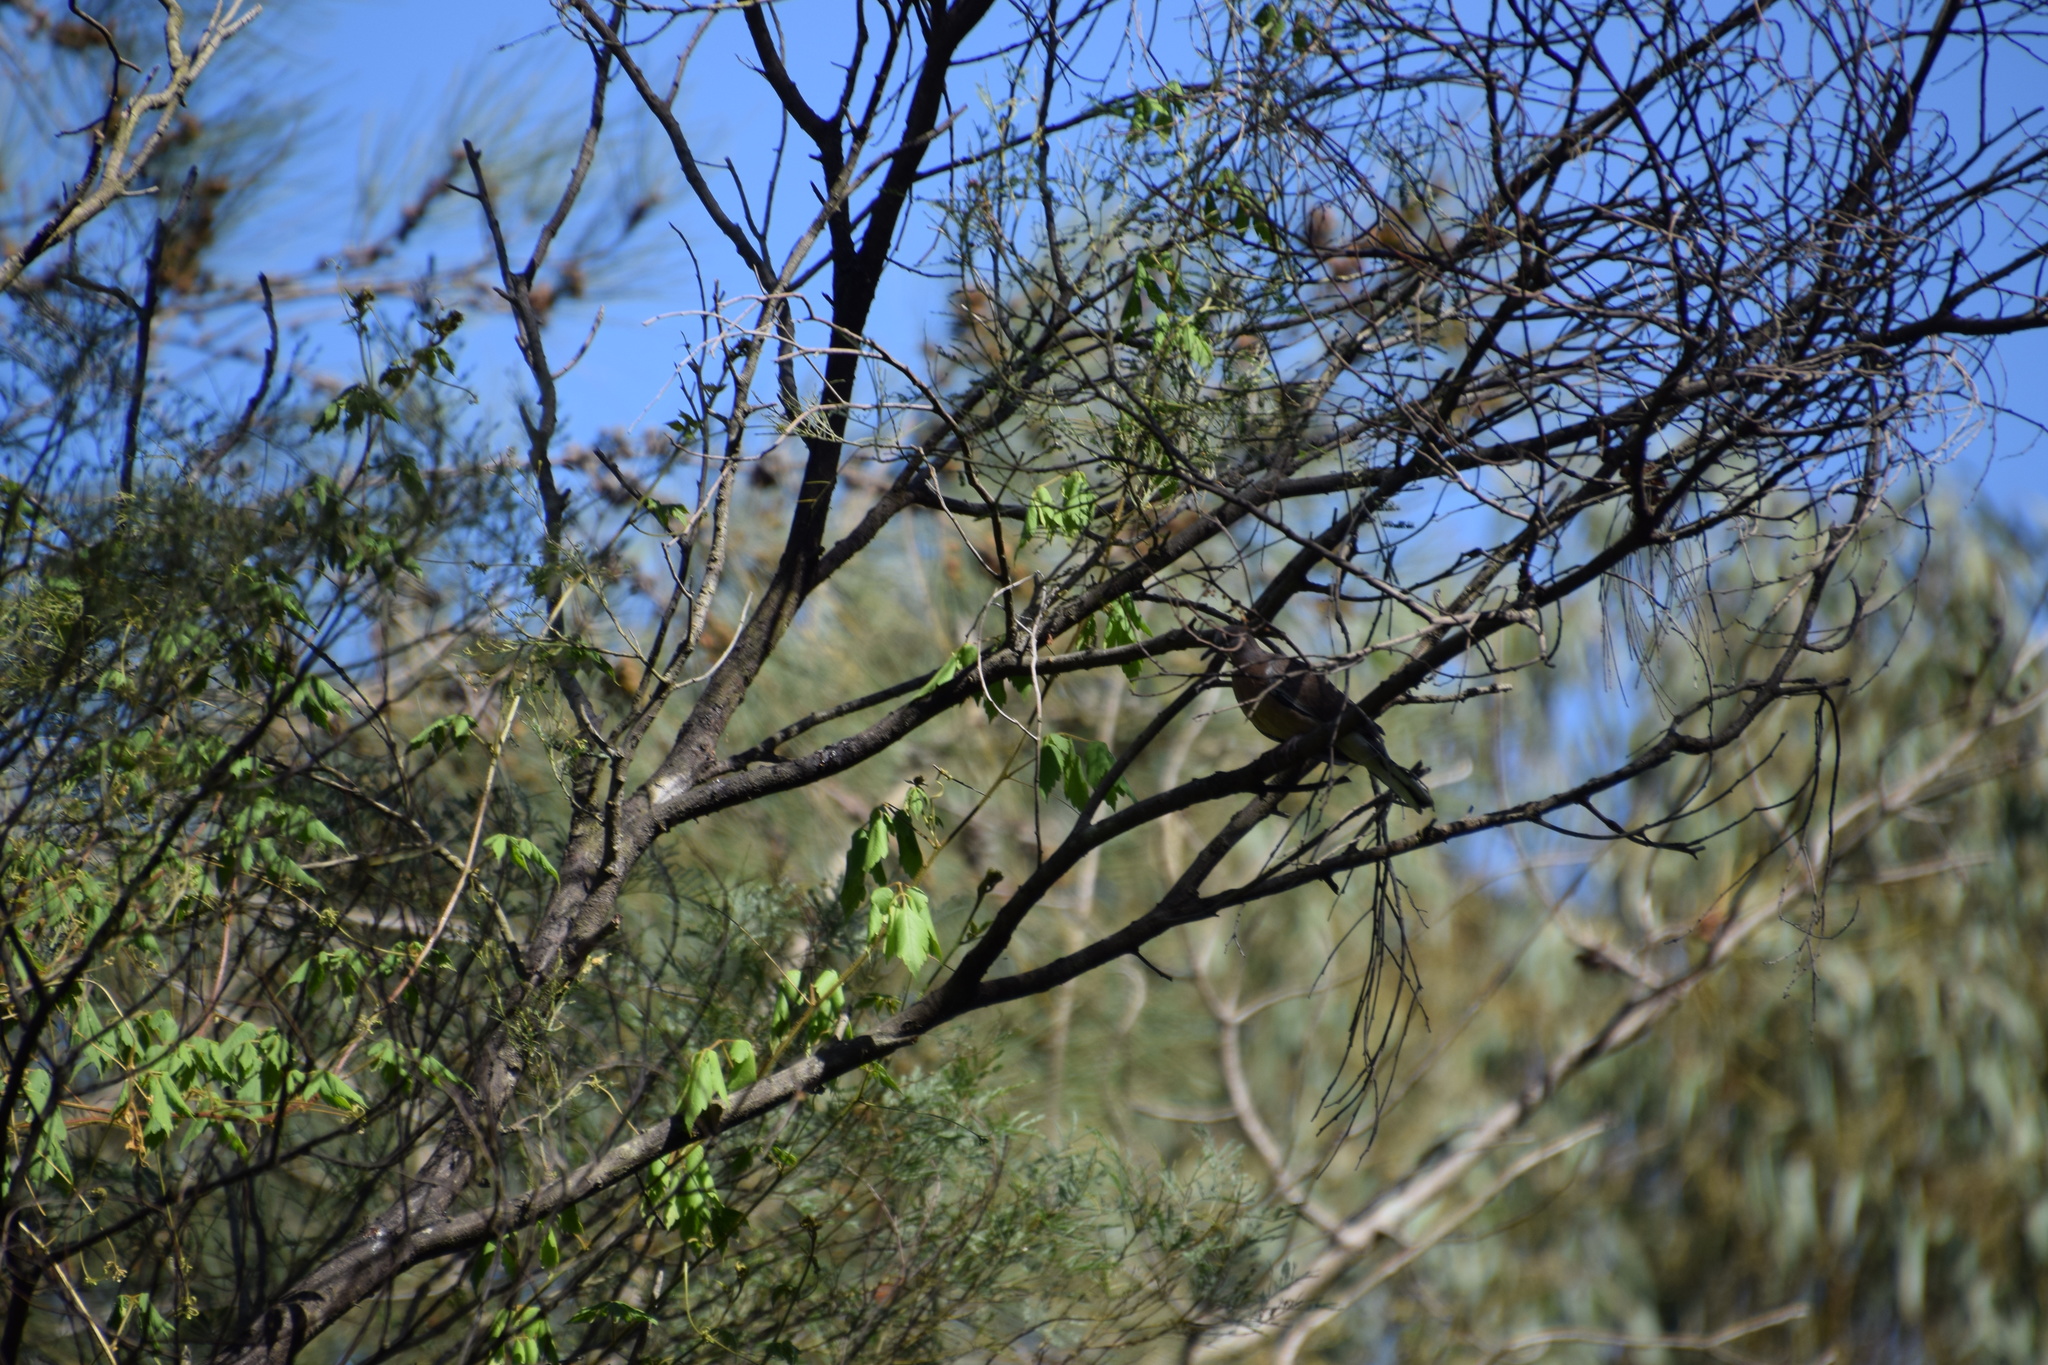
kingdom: Animalia
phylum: Chordata
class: Aves
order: Columbiformes
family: Columbidae
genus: Spilopelia
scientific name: Spilopelia chinensis
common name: Spotted dove
